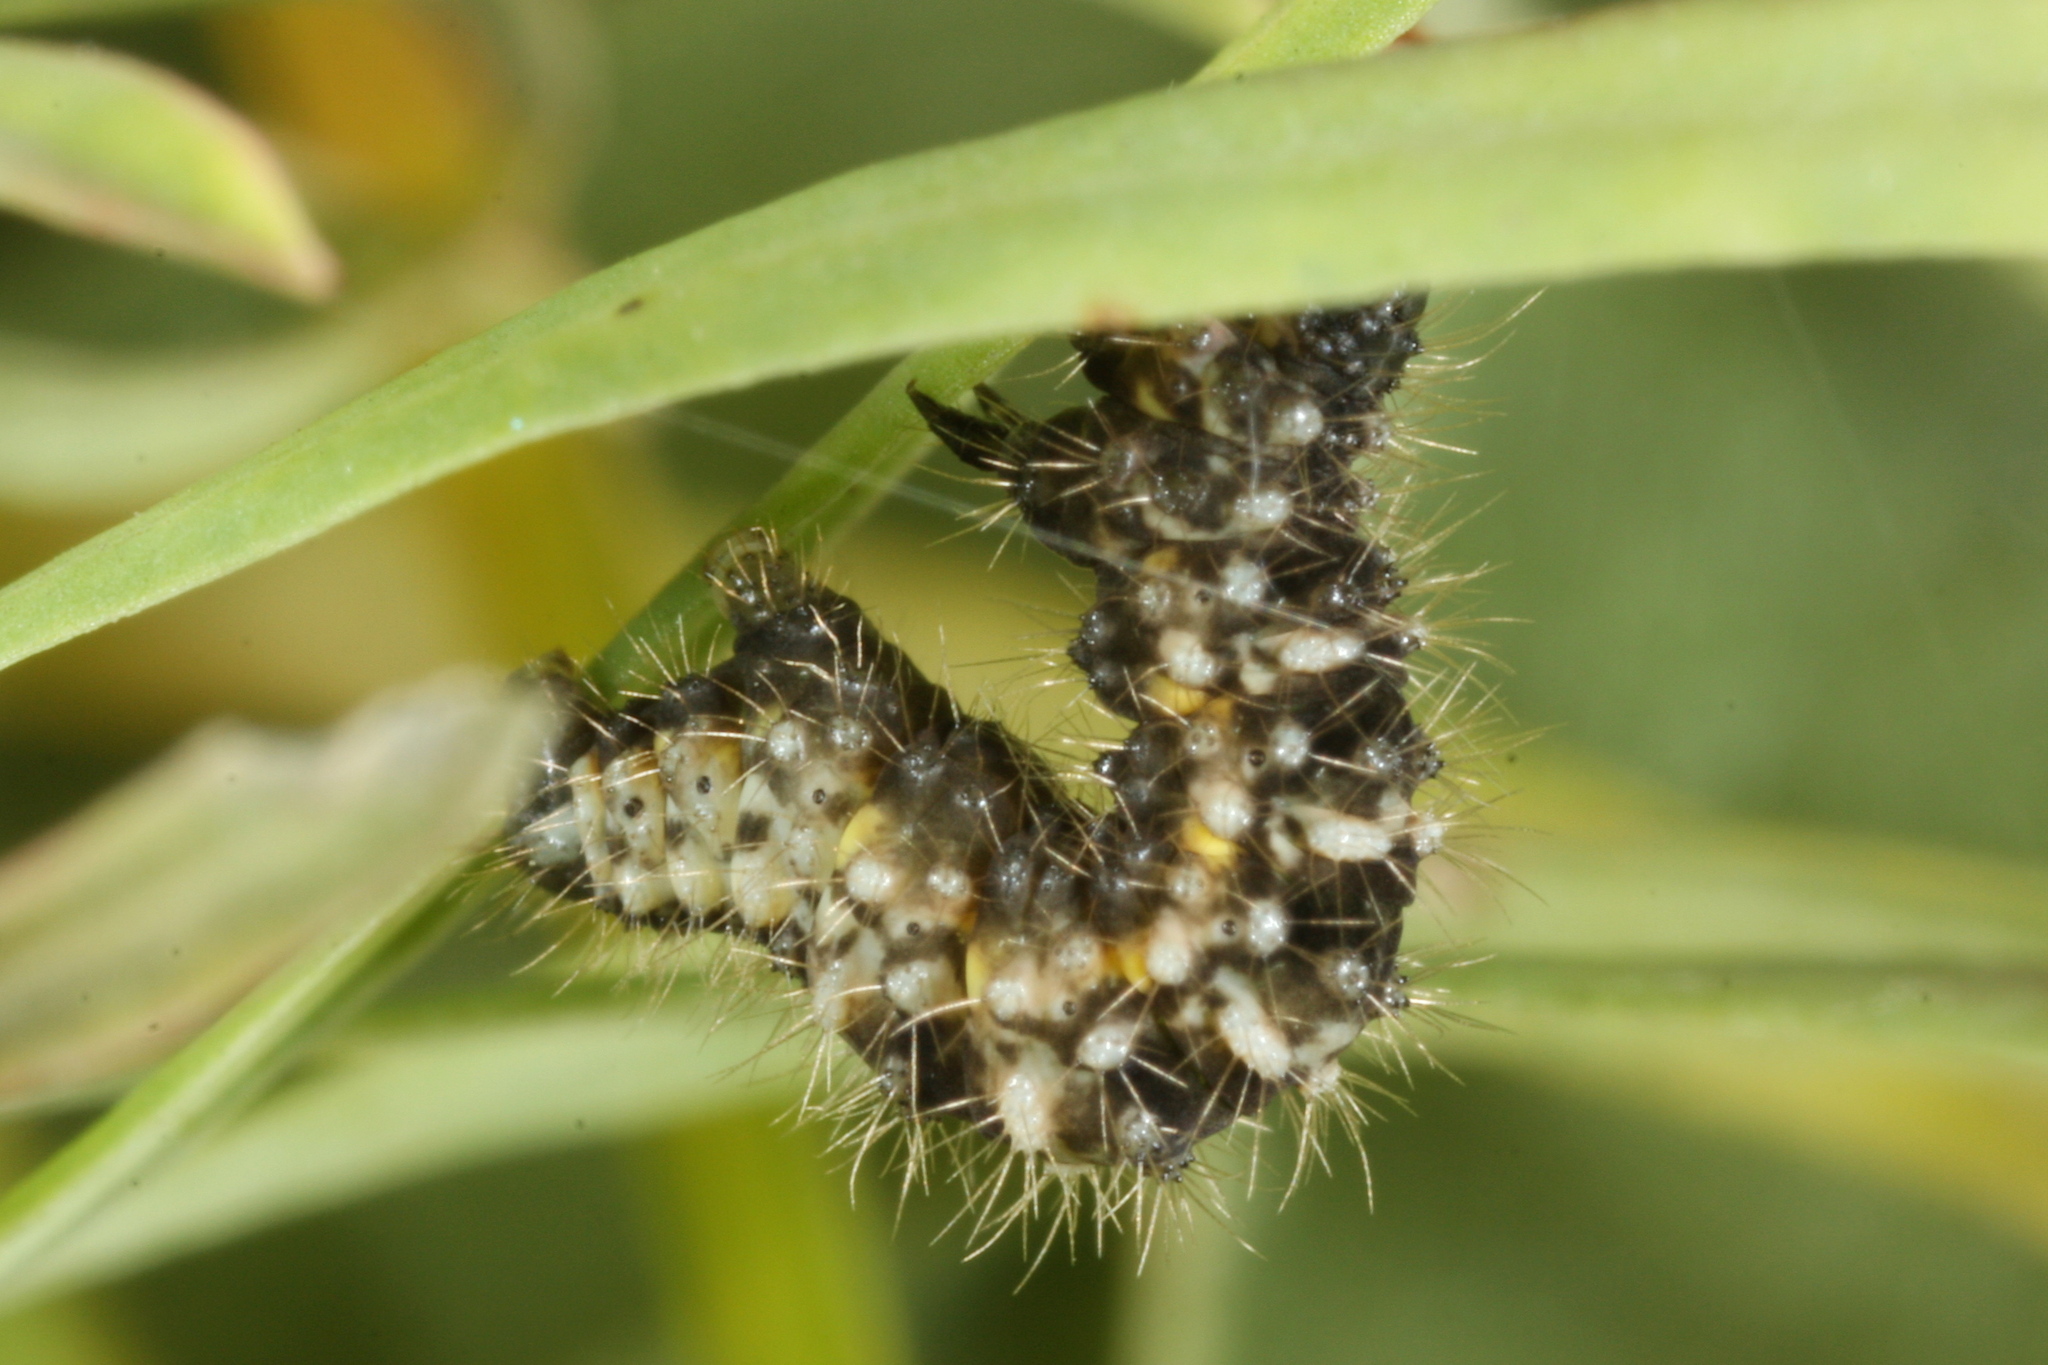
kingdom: Animalia
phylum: Arthropoda
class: Insecta
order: Lepidoptera
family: Geometridae
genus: Minoa
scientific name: Minoa murinata
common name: Drab looper
